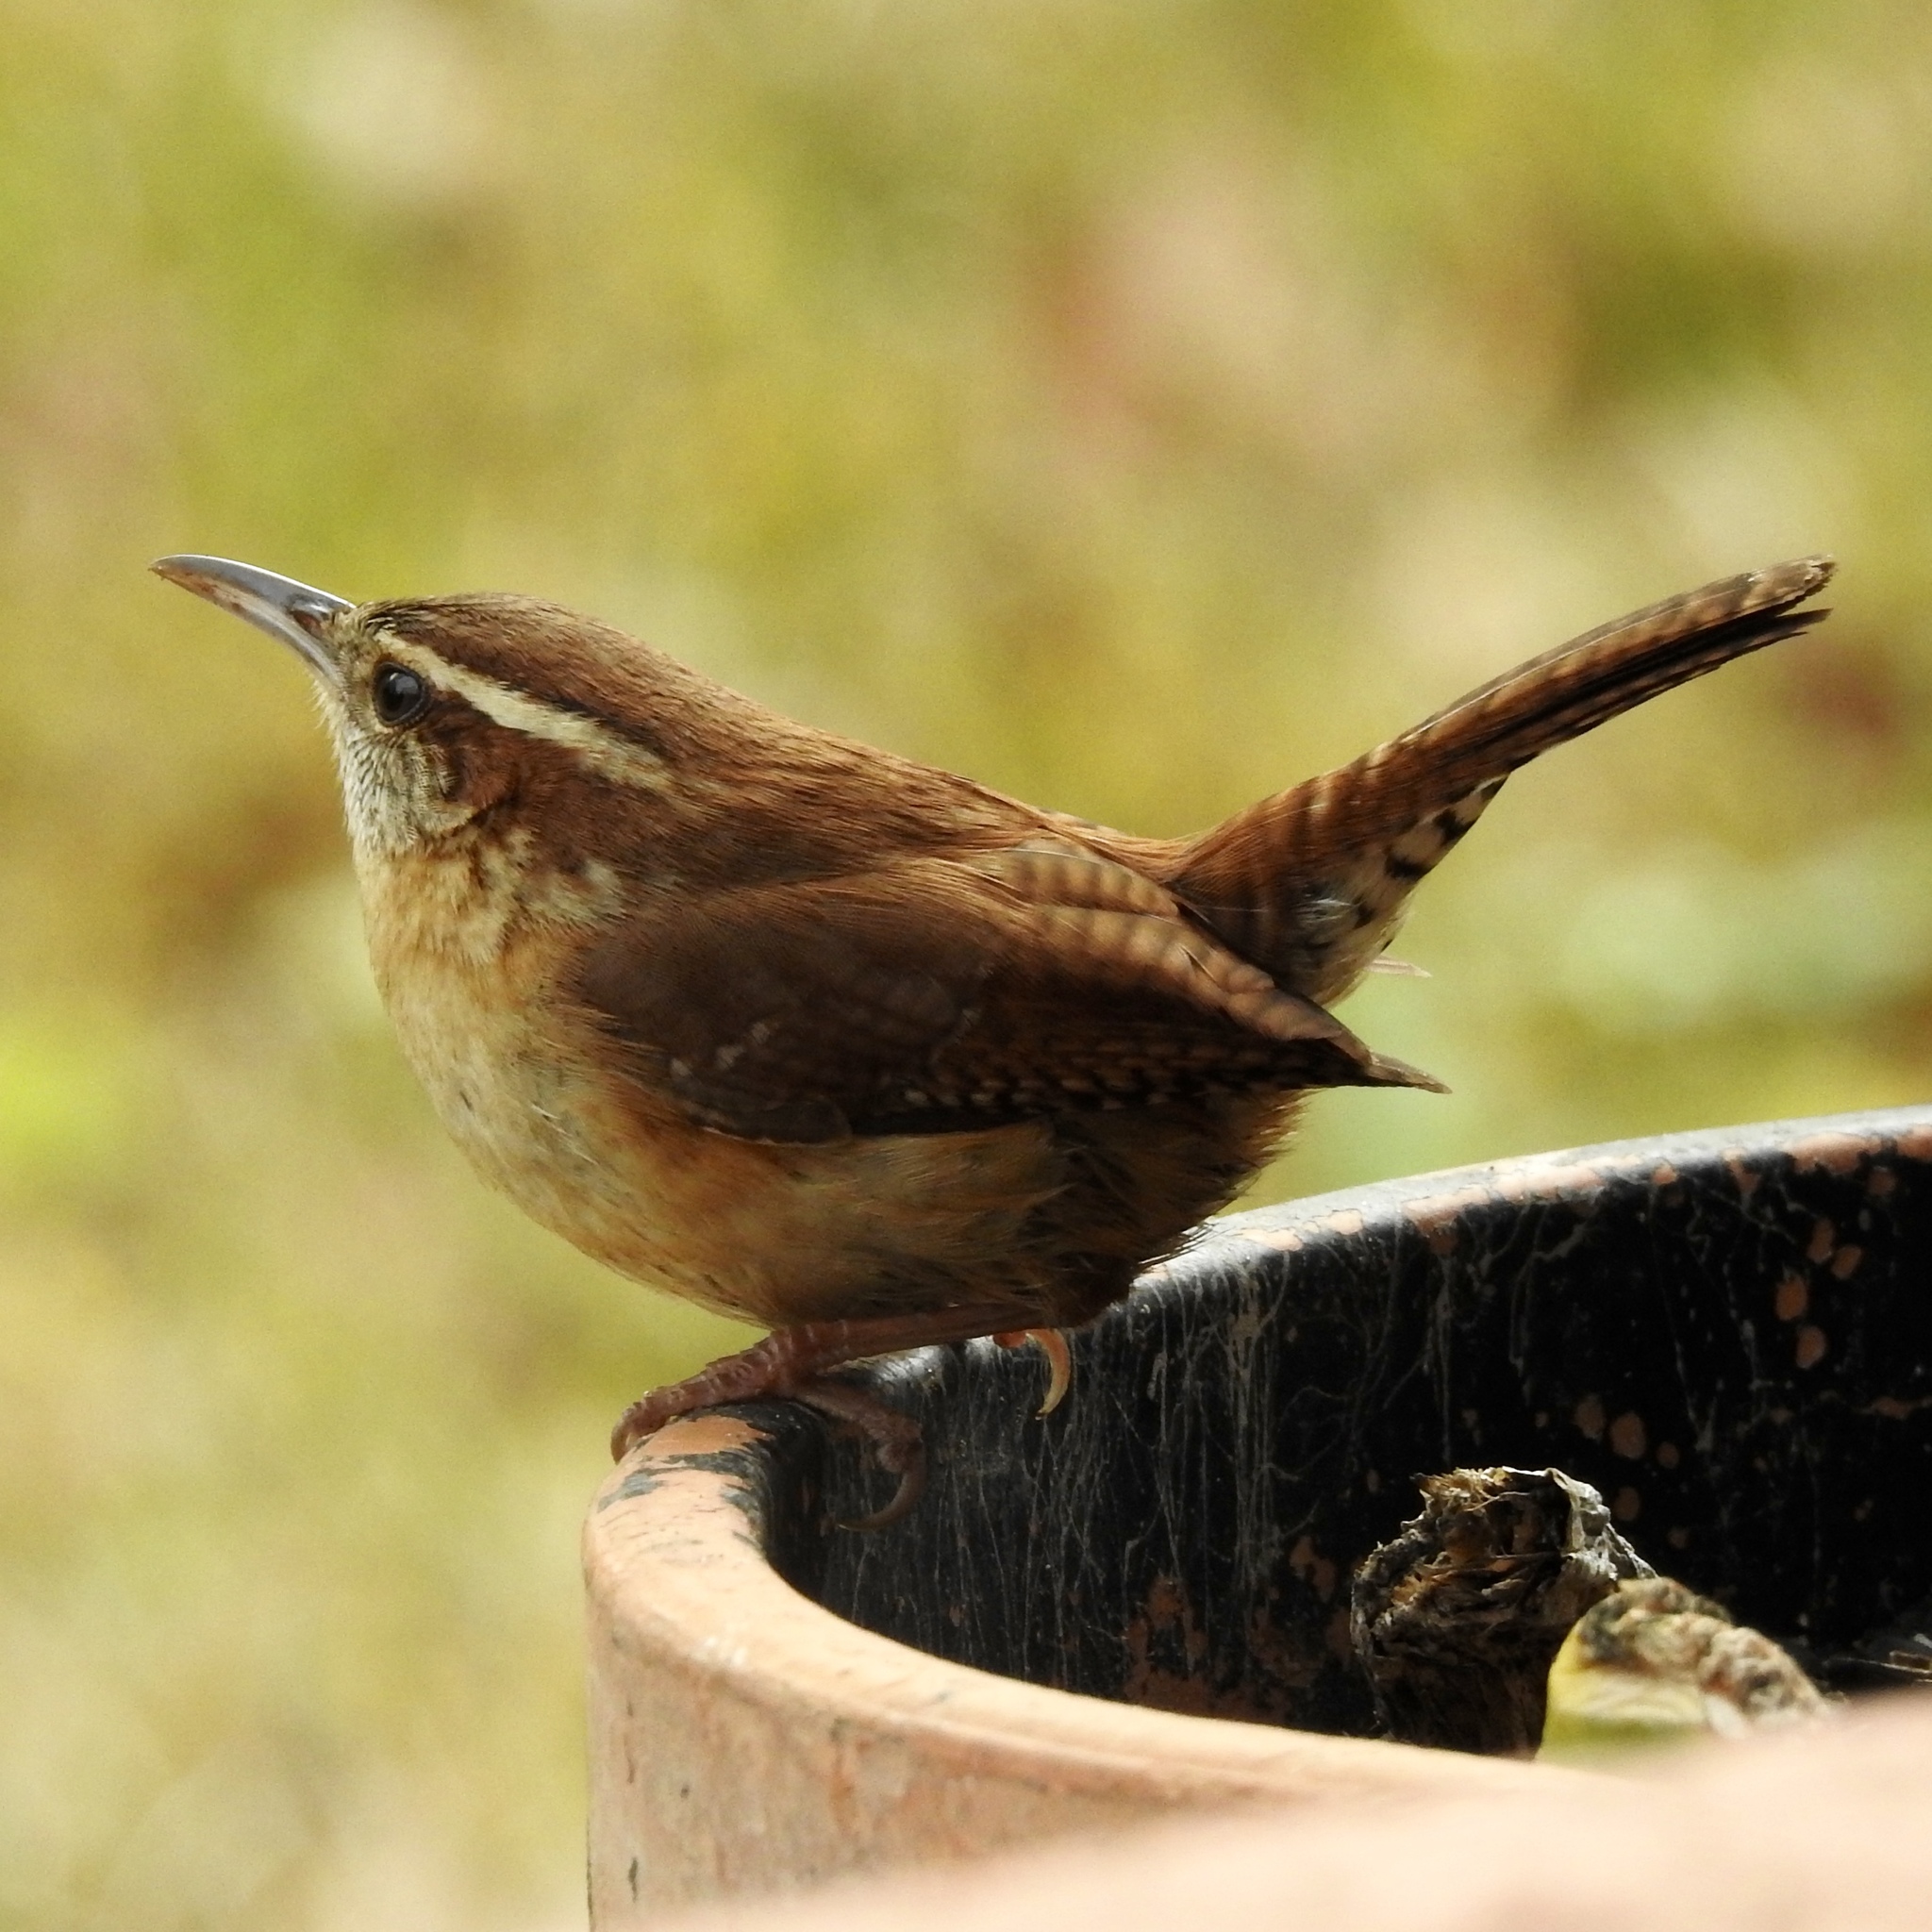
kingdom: Animalia
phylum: Chordata
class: Aves
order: Passeriformes
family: Troglodytidae
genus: Thryothorus
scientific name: Thryothorus ludovicianus
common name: Carolina wren
